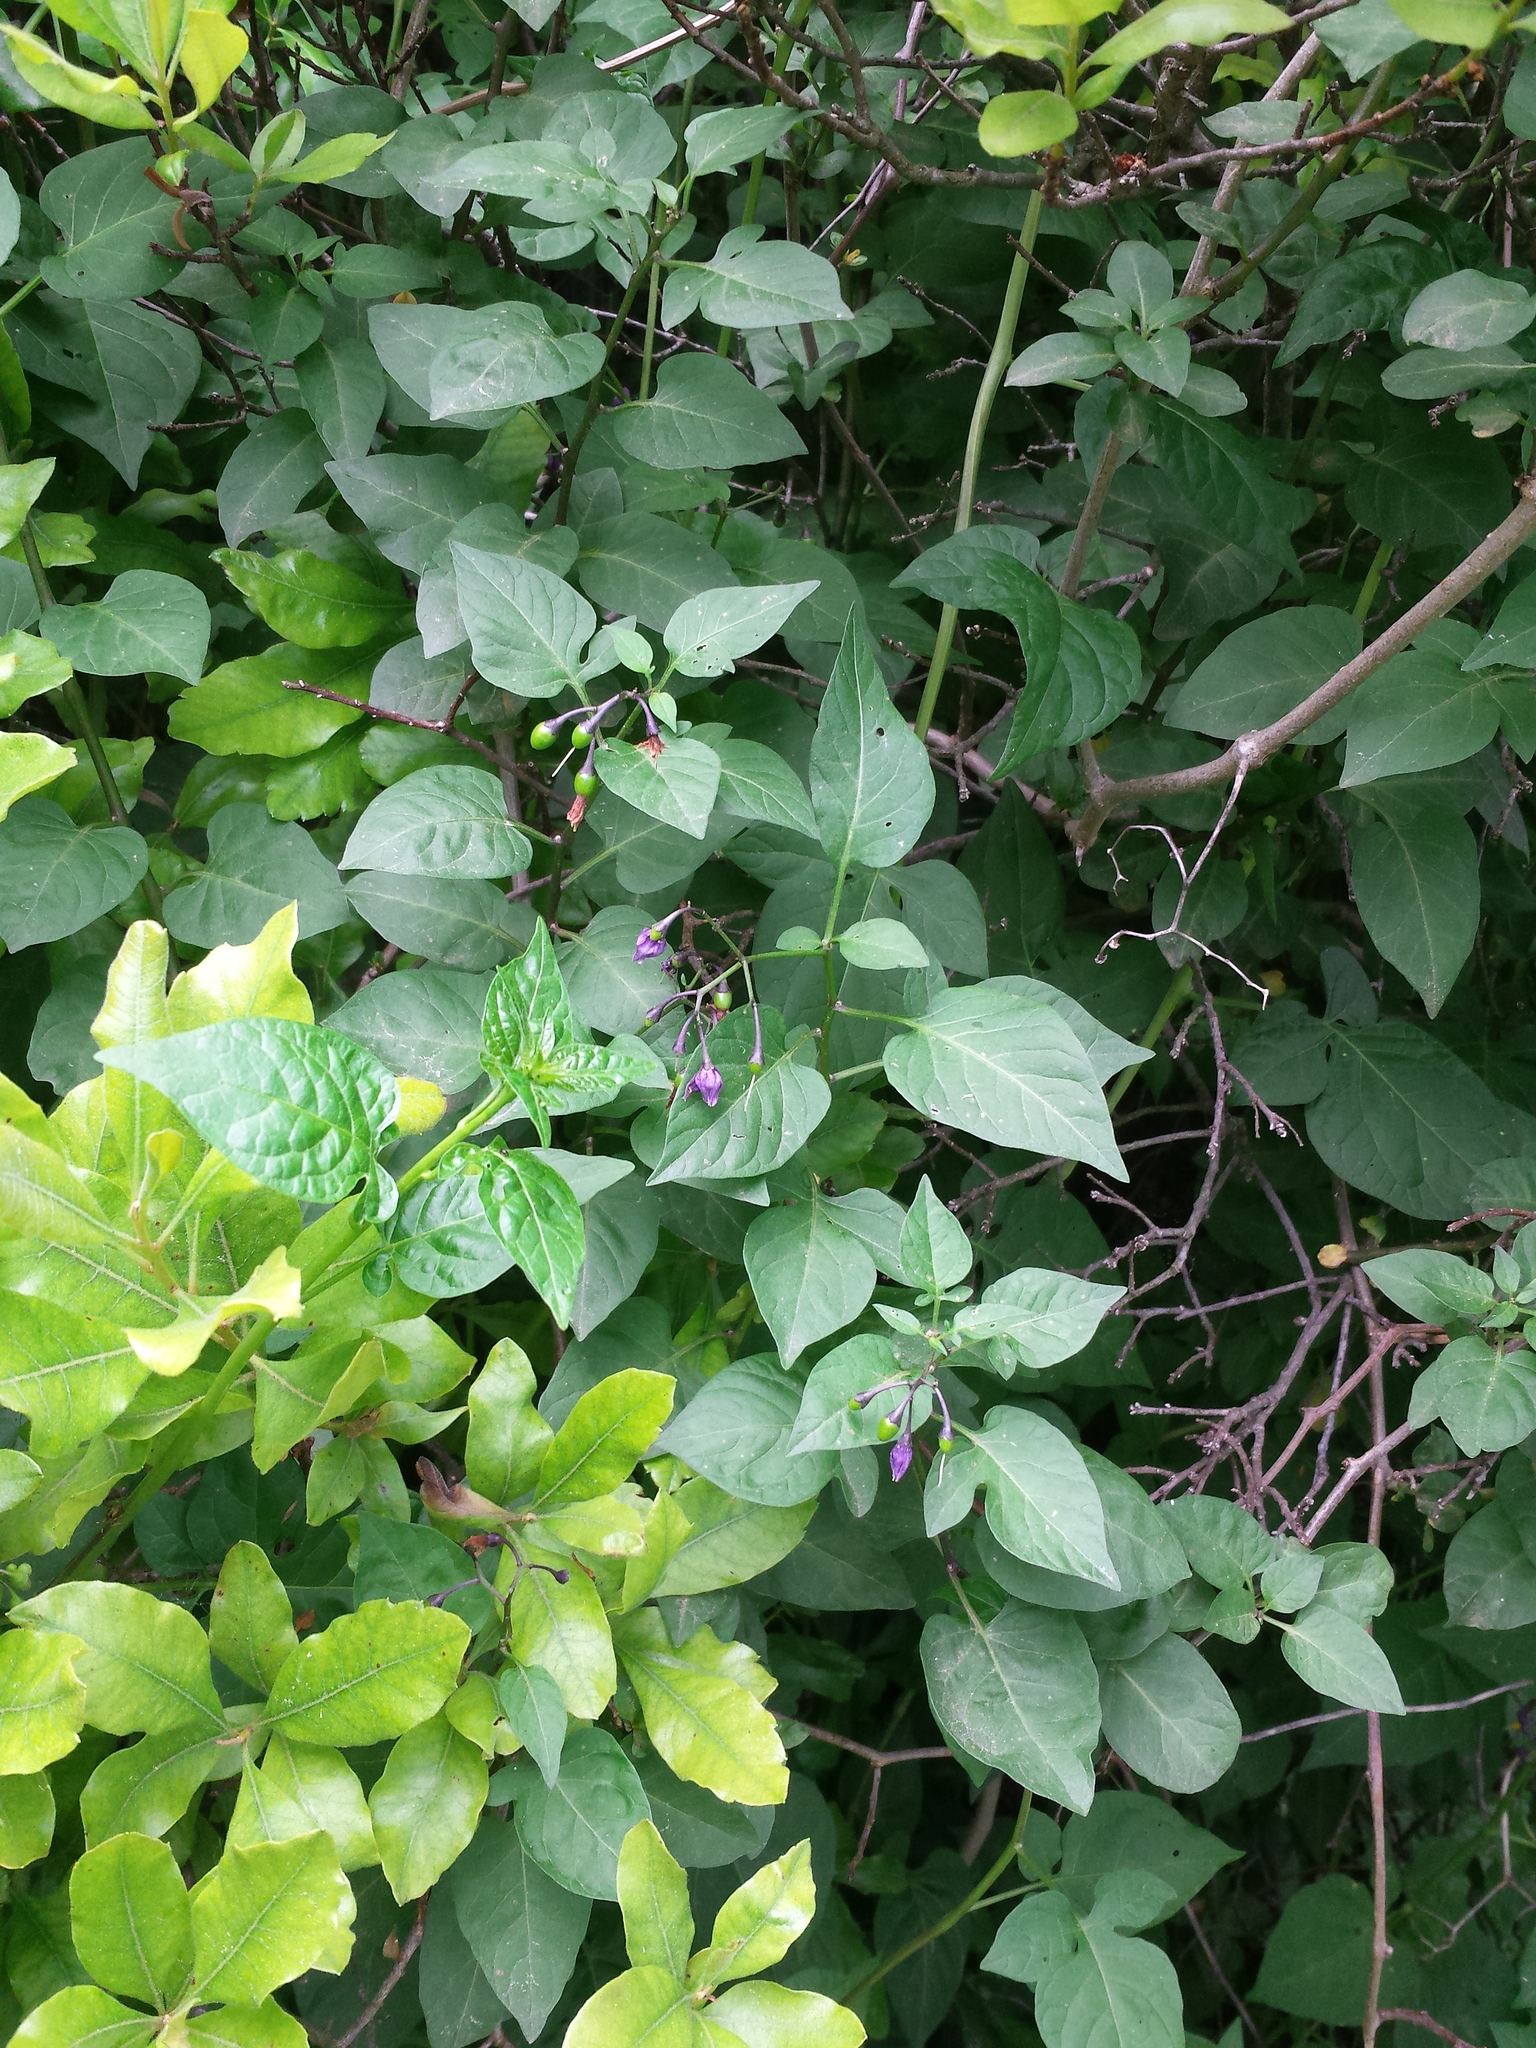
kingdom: Plantae
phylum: Tracheophyta
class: Magnoliopsida
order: Solanales
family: Solanaceae
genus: Solanum
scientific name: Solanum dulcamara
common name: Climbing nightshade
